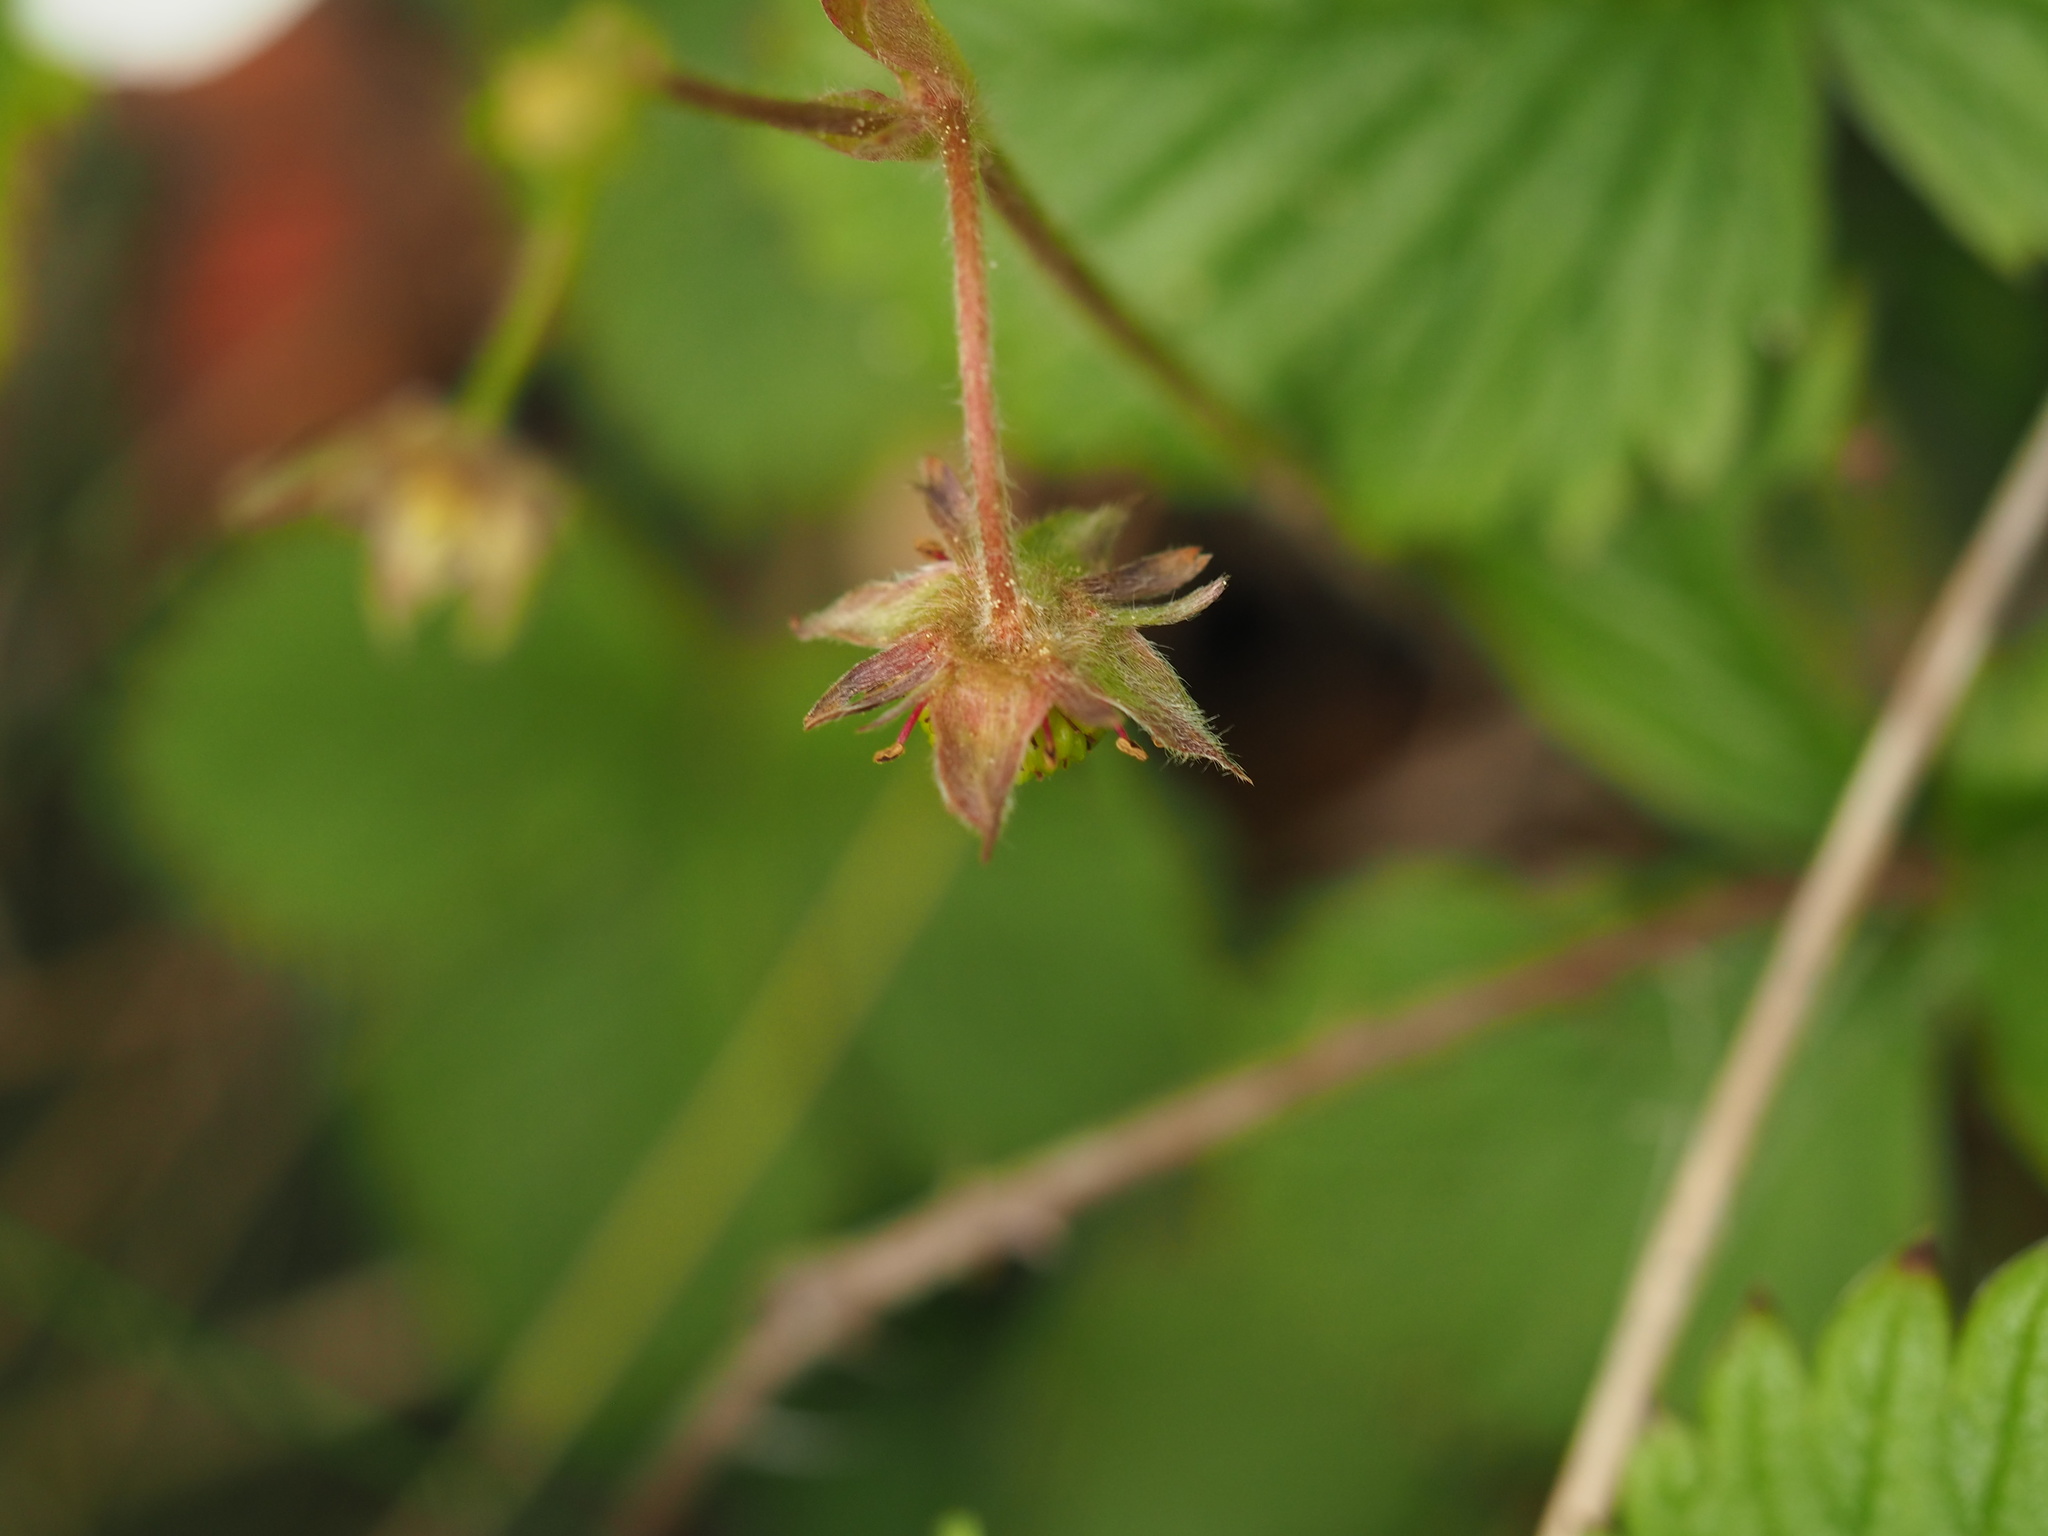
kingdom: Plantae
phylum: Tracheophyta
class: Magnoliopsida
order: Rosales
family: Rosaceae
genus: Fragaria
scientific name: Fragaria vesca
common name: Wild strawberry
